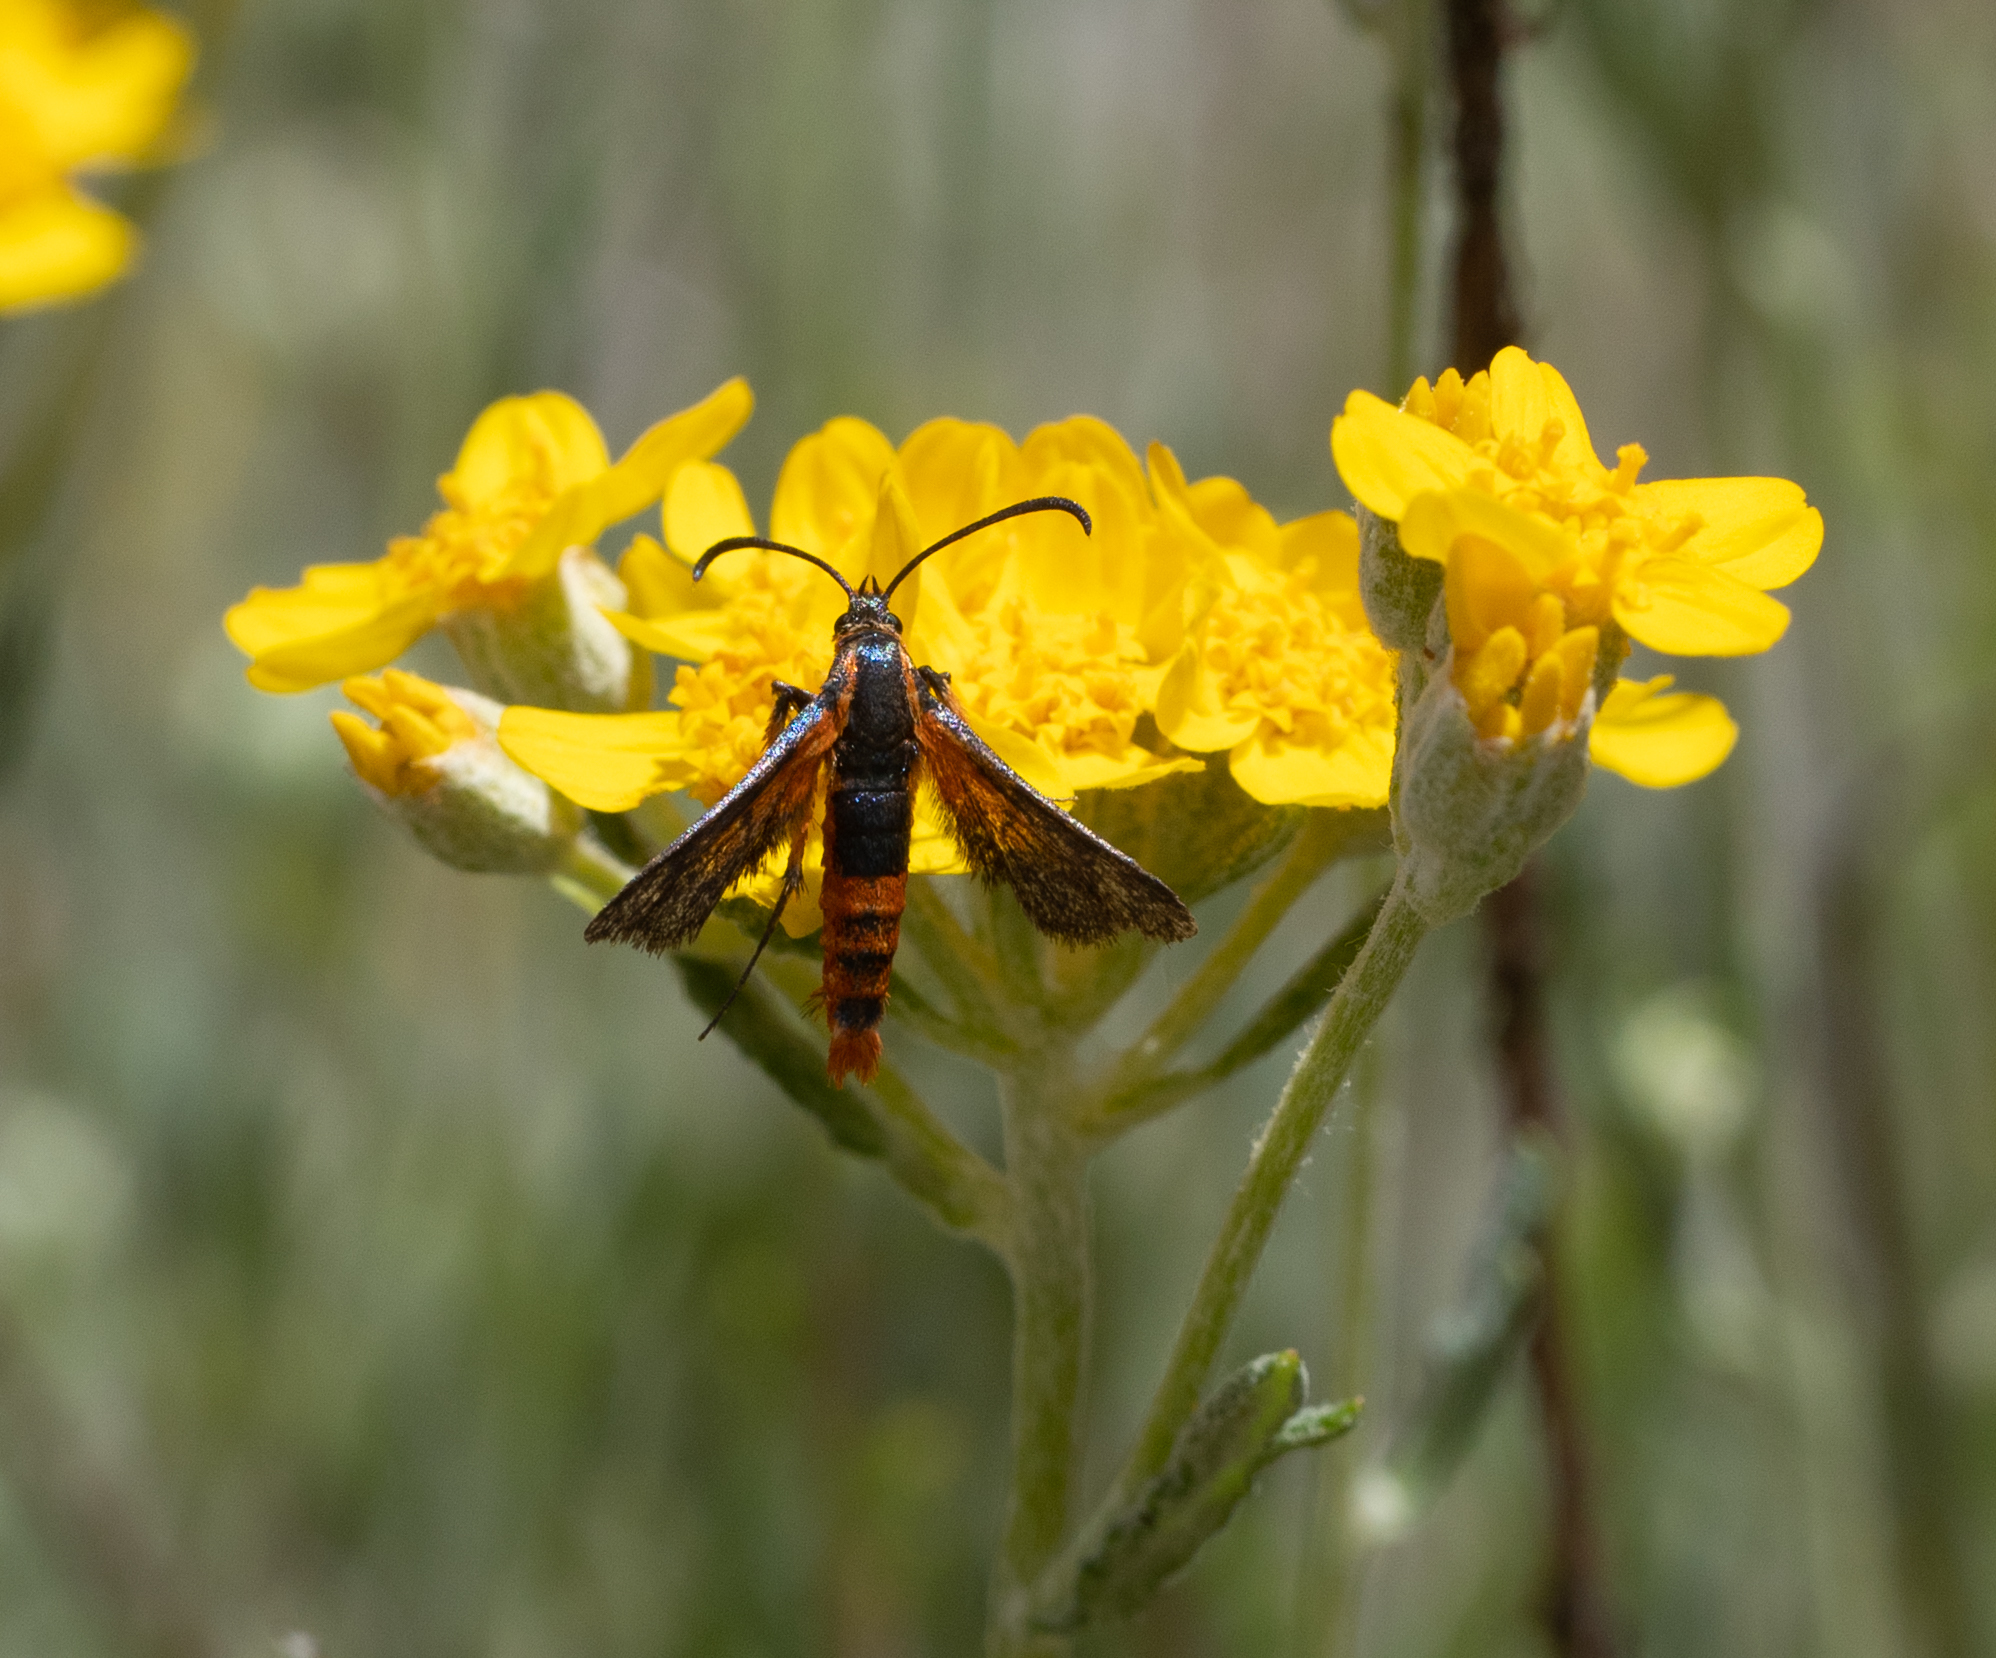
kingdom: Animalia
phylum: Arthropoda
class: Insecta
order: Lepidoptera
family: Sesiidae
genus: Synanthedon
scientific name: Synanthedon polygoni
